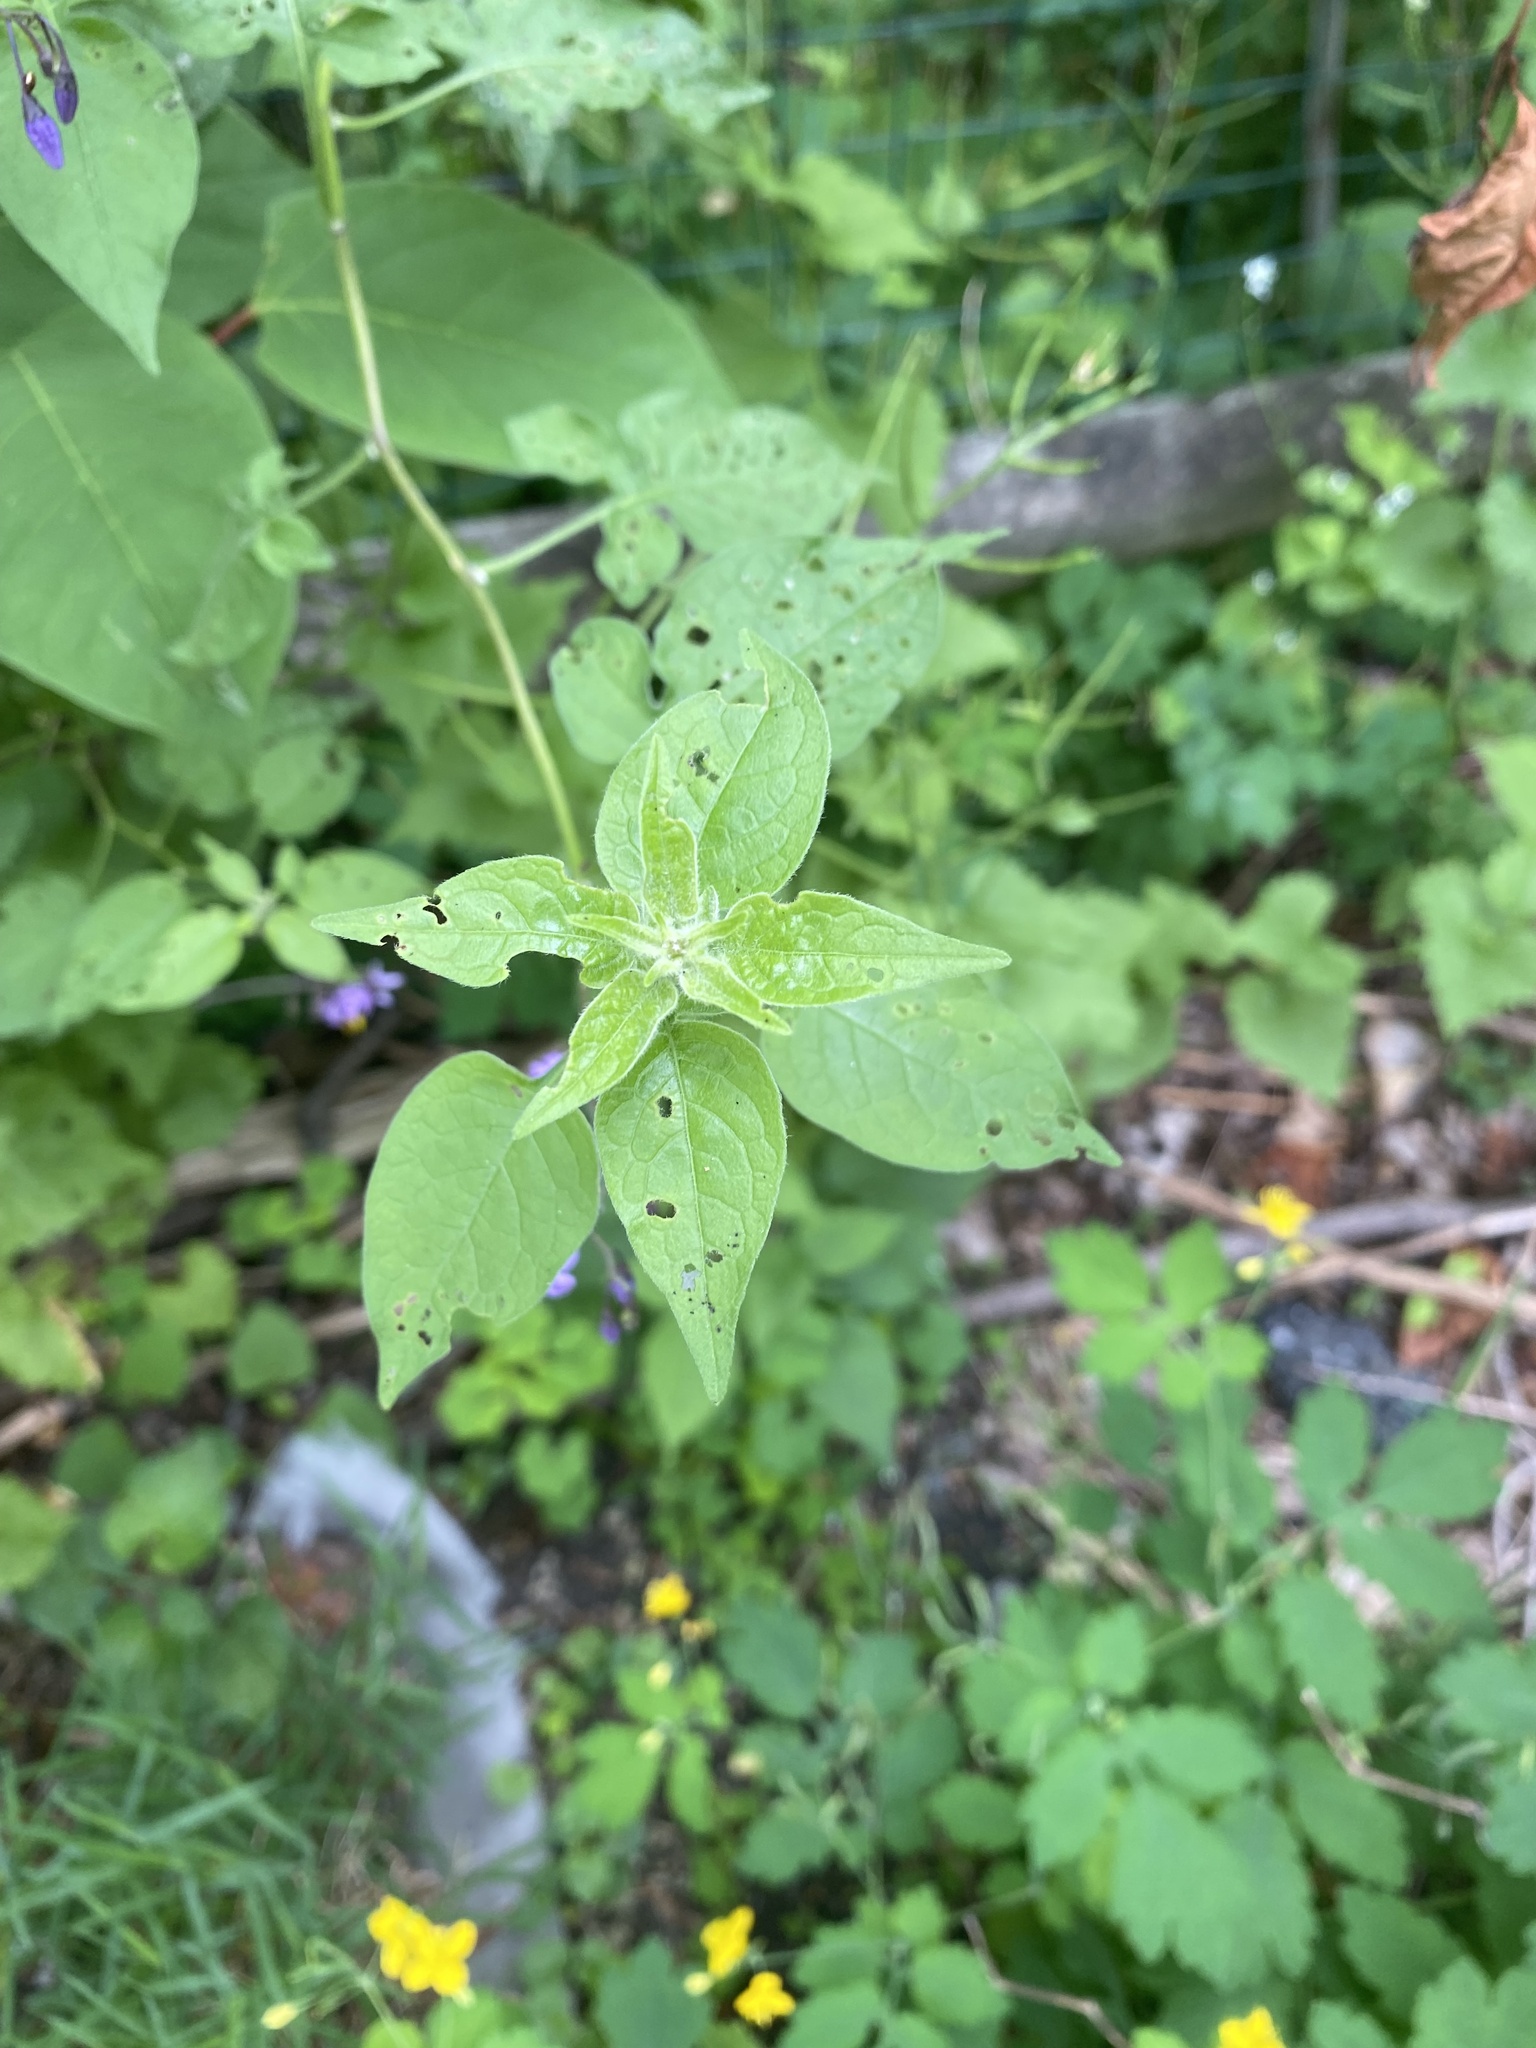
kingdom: Plantae
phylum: Tracheophyta
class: Magnoliopsida
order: Solanales
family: Solanaceae
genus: Solanum
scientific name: Solanum dulcamara
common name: Climbing nightshade
